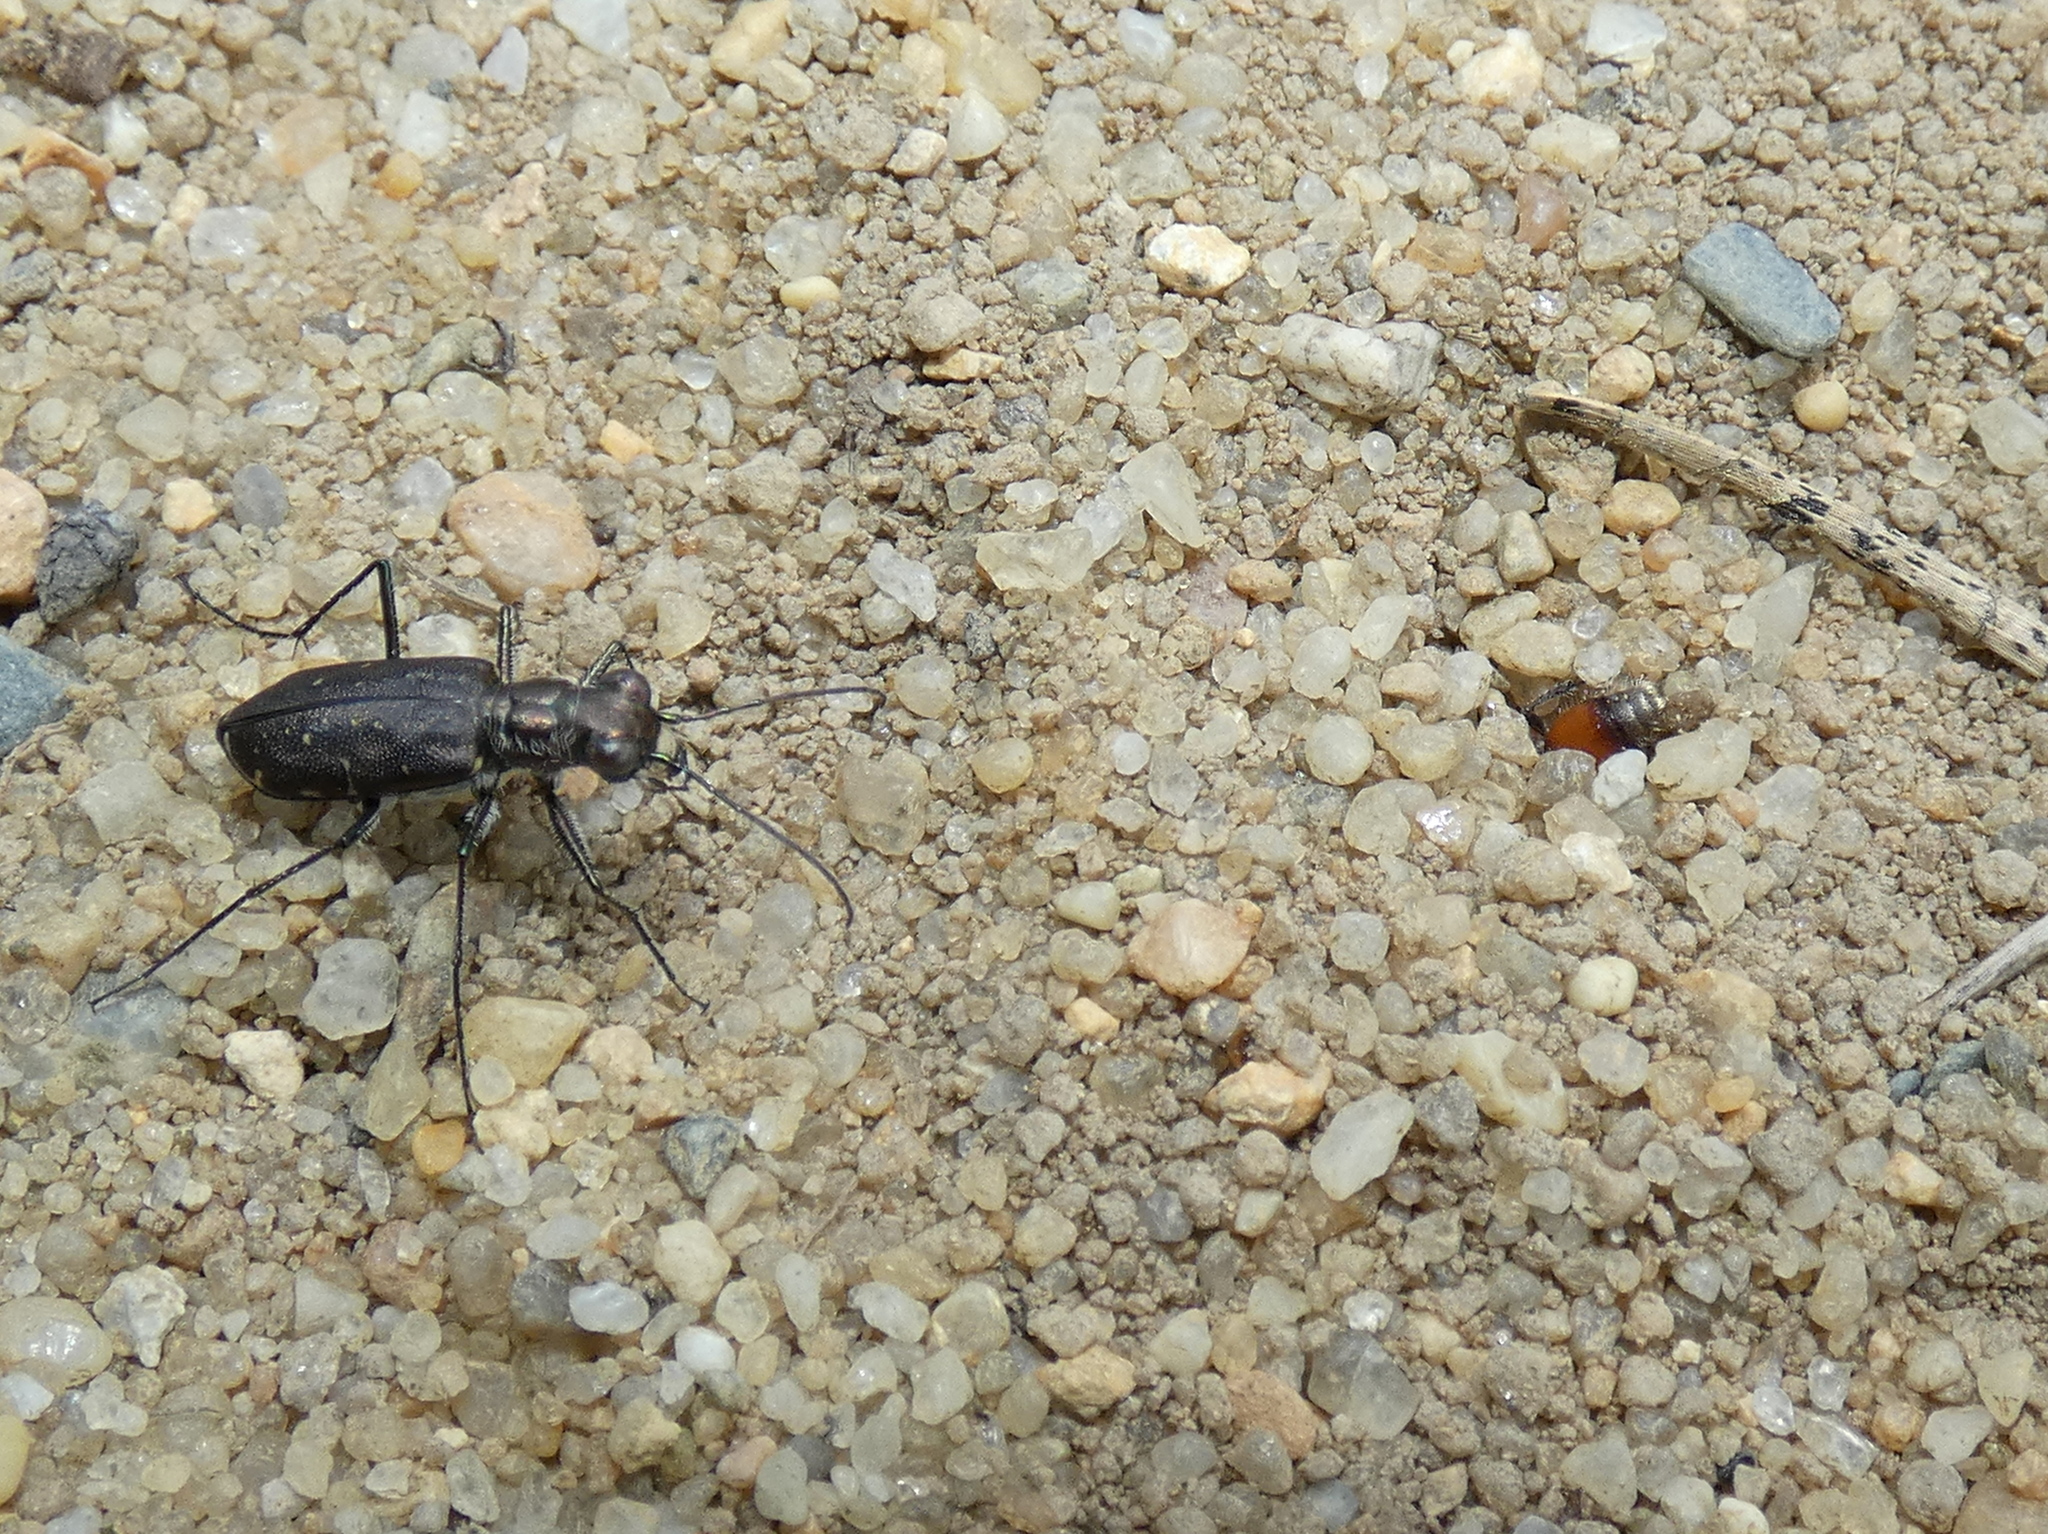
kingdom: Animalia
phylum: Arthropoda
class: Insecta
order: Coleoptera
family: Carabidae
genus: Cicindela
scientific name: Cicindela punctulata
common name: Punctured tiger beetle
